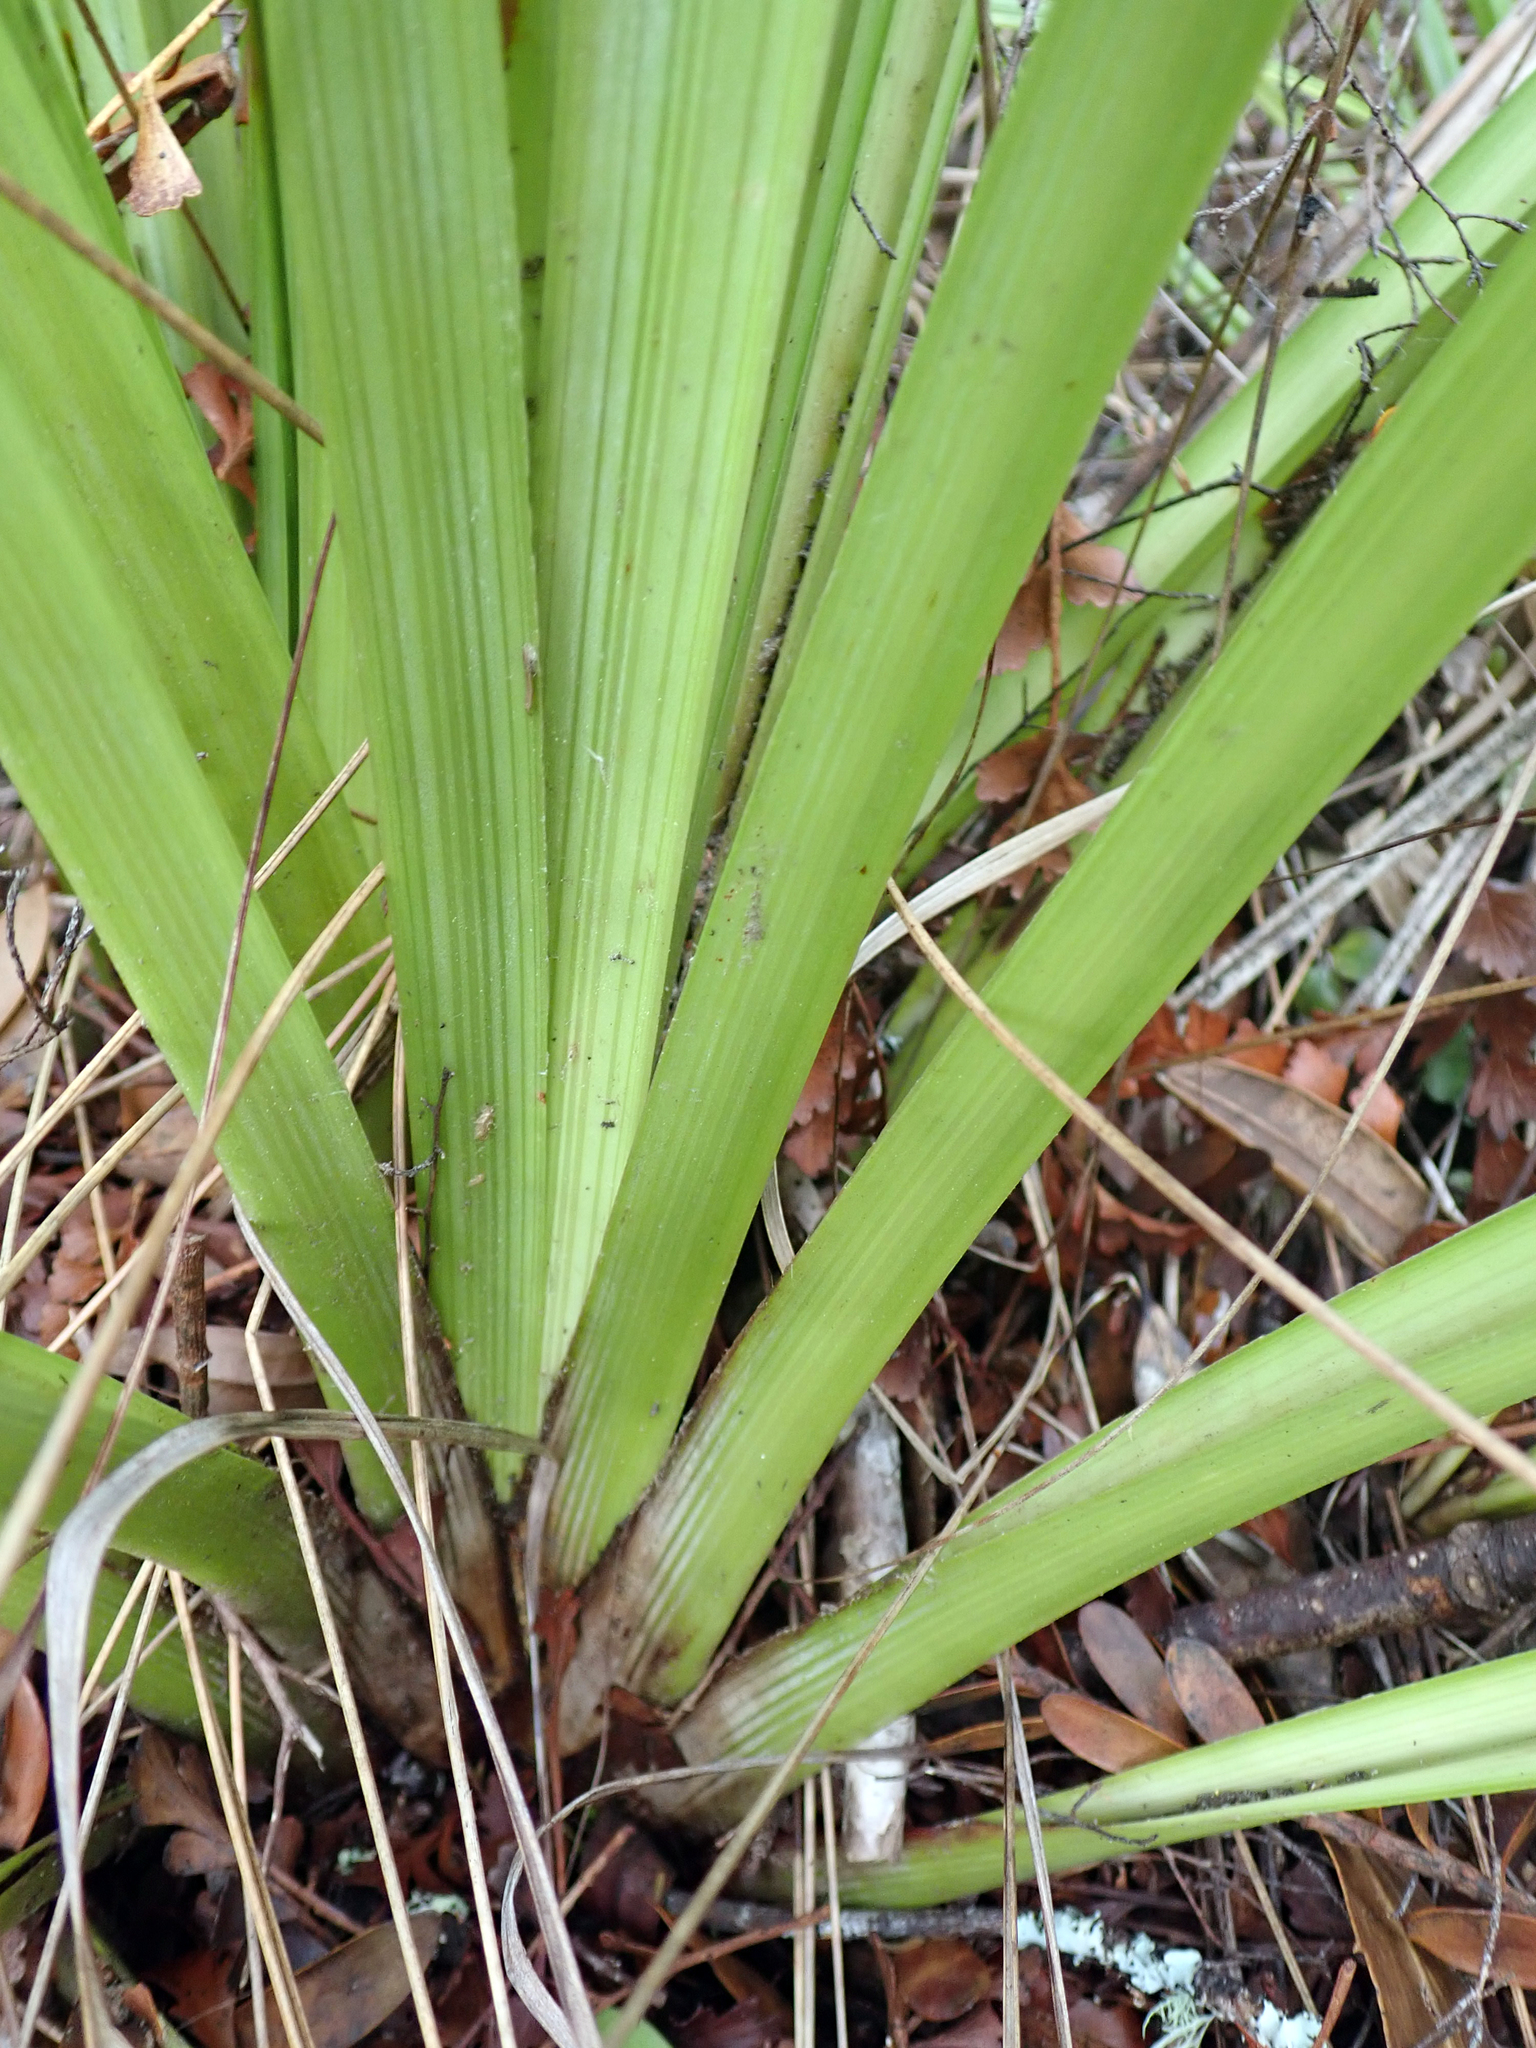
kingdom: Plantae
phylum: Tracheophyta
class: Liliopsida
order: Asparagales
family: Asteliaceae
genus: Astelia
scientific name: Astelia trinervia
